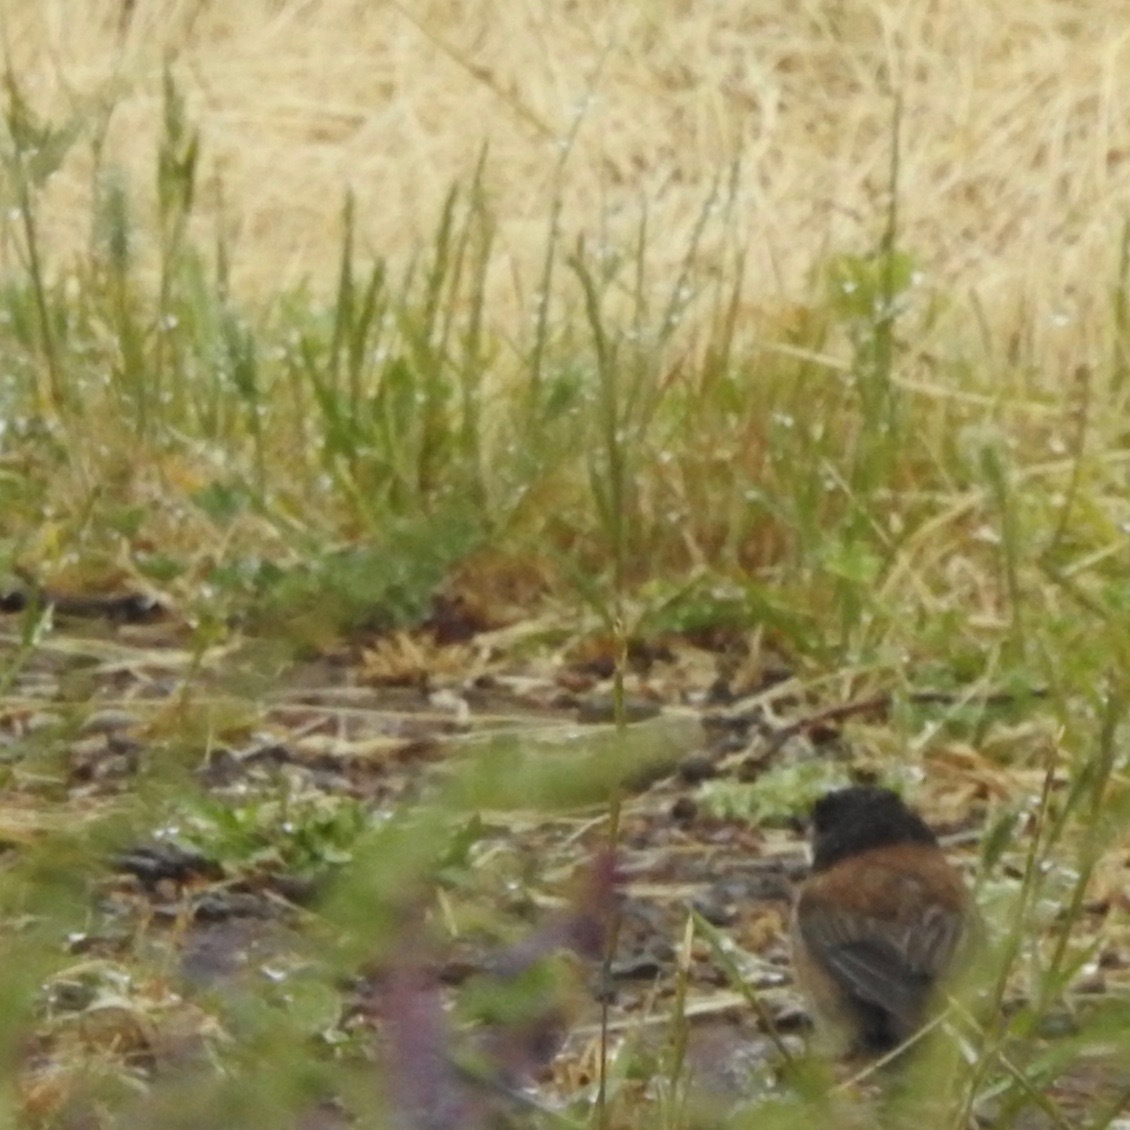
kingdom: Animalia
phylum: Chordata
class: Aves
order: Passeriformes
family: Passerellidae
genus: Junco
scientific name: Junco hyemalis
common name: Dark-eyed junco
